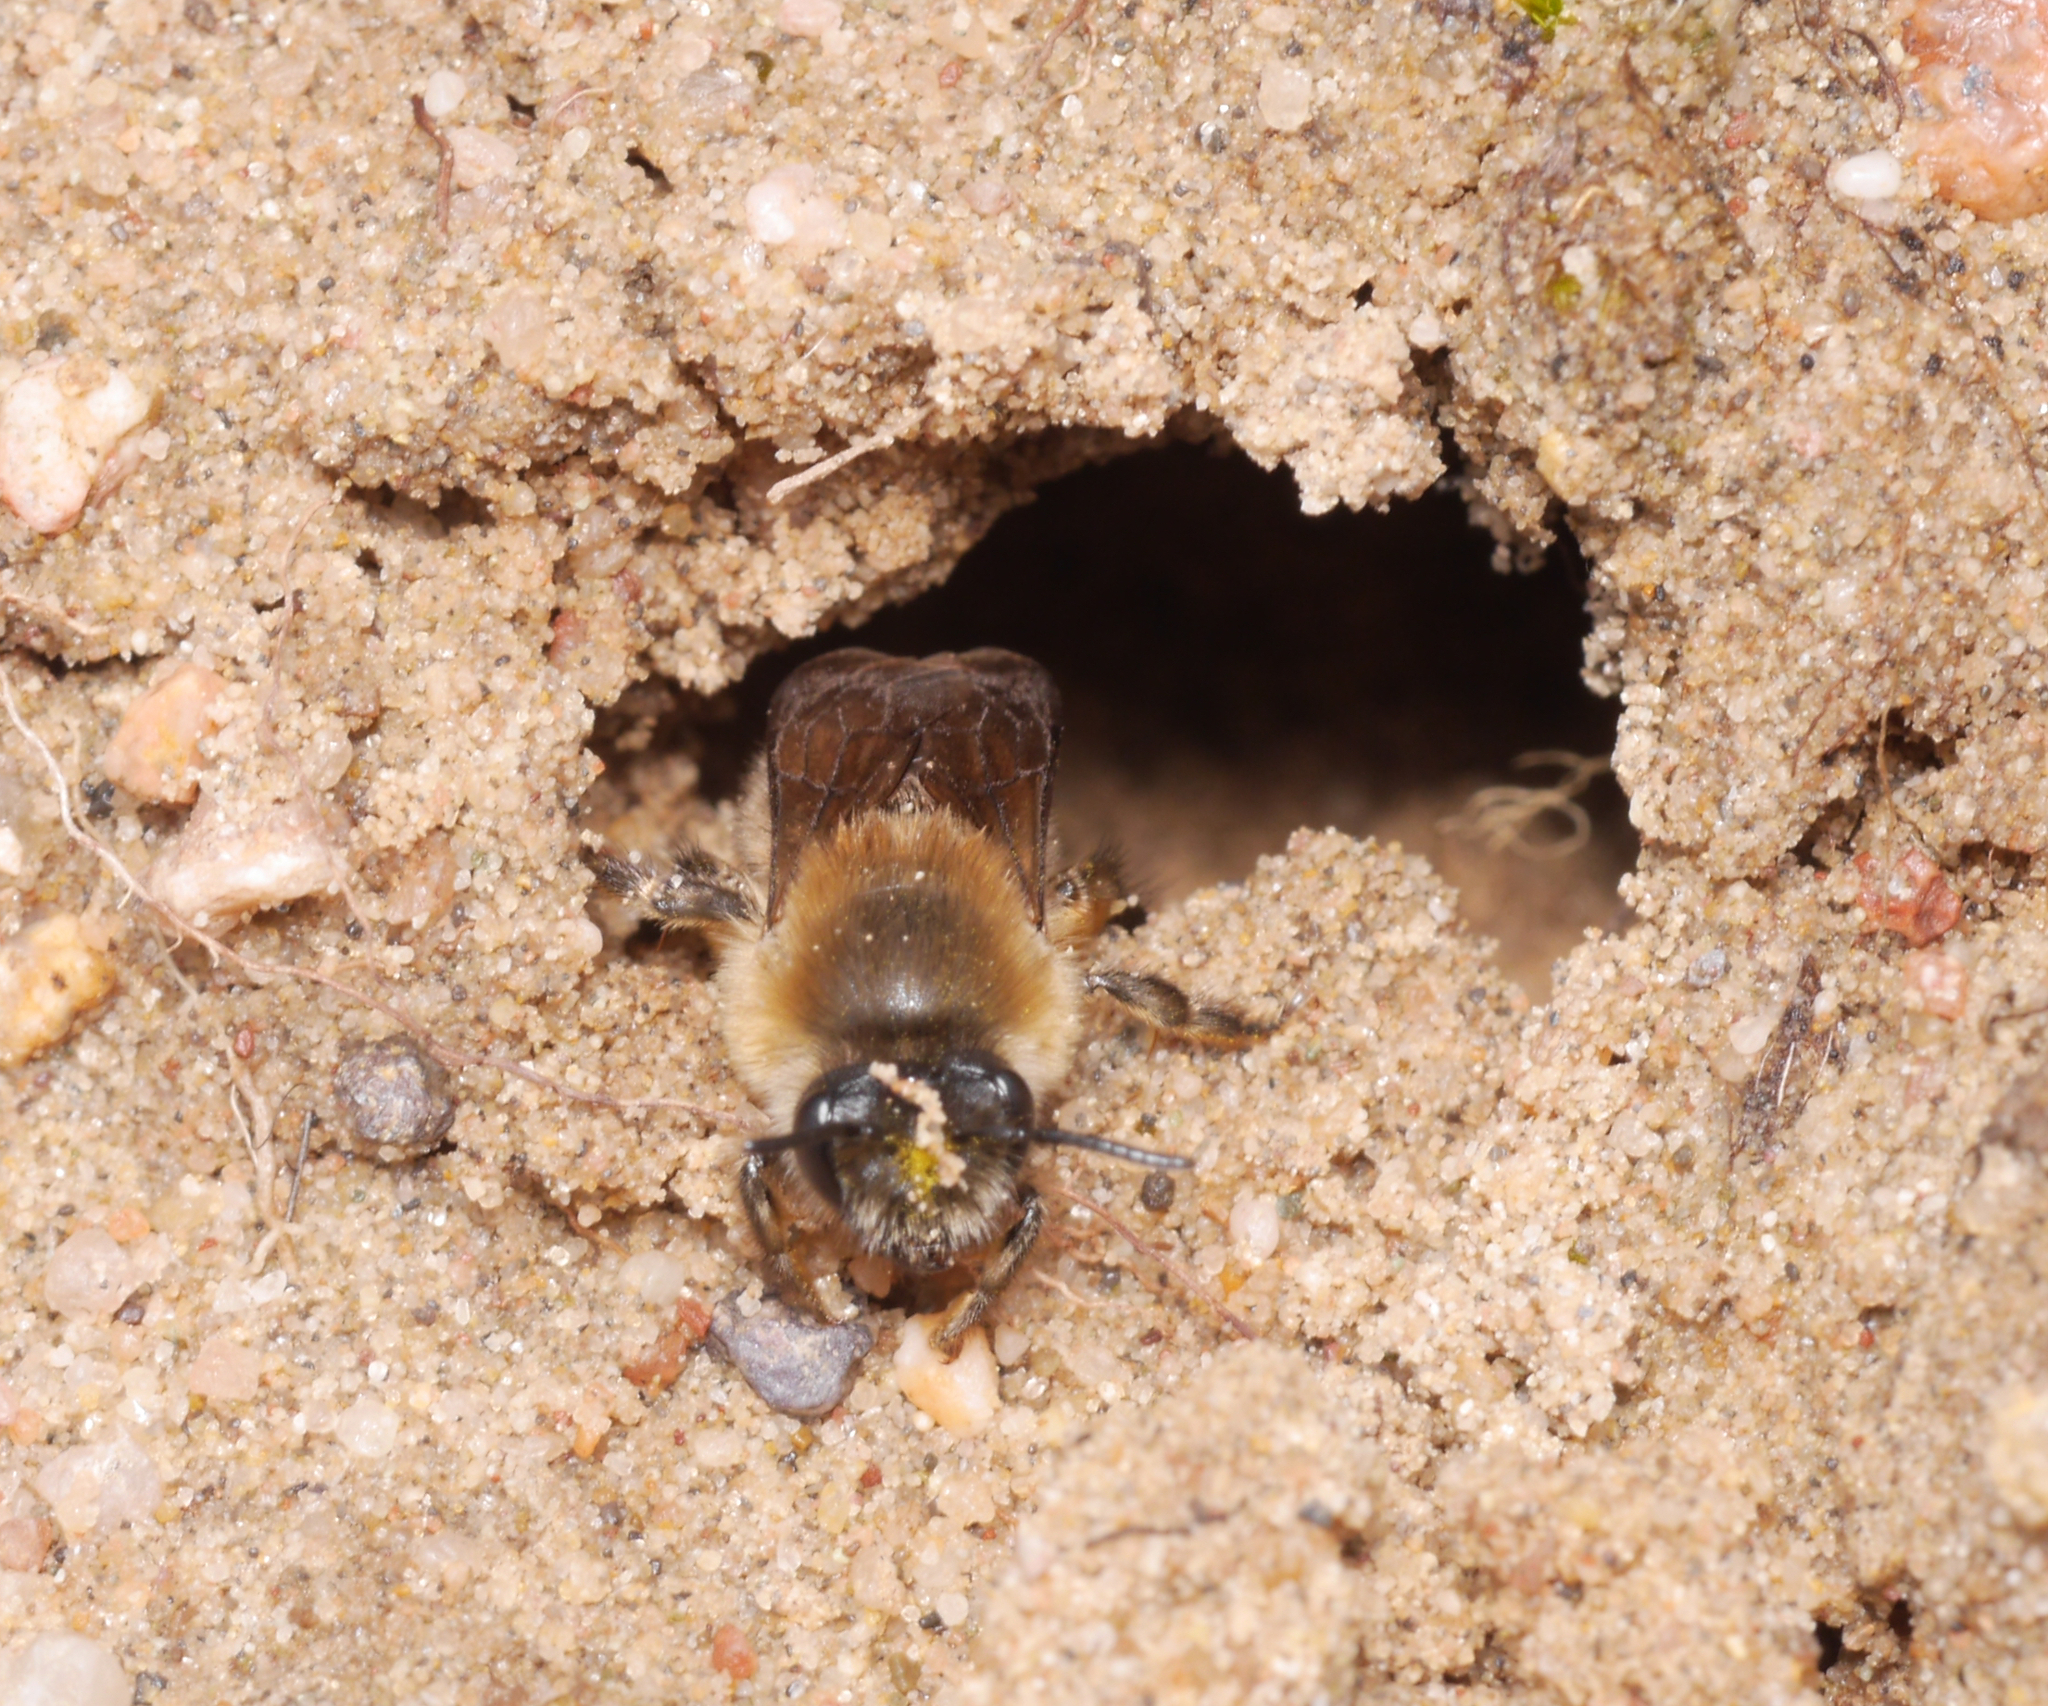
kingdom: Animalia
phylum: Arthropoda
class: Insecta
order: Hymenoptera
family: Colletidae
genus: Colletes
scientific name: Colletes cunicularius
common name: Early colletes
